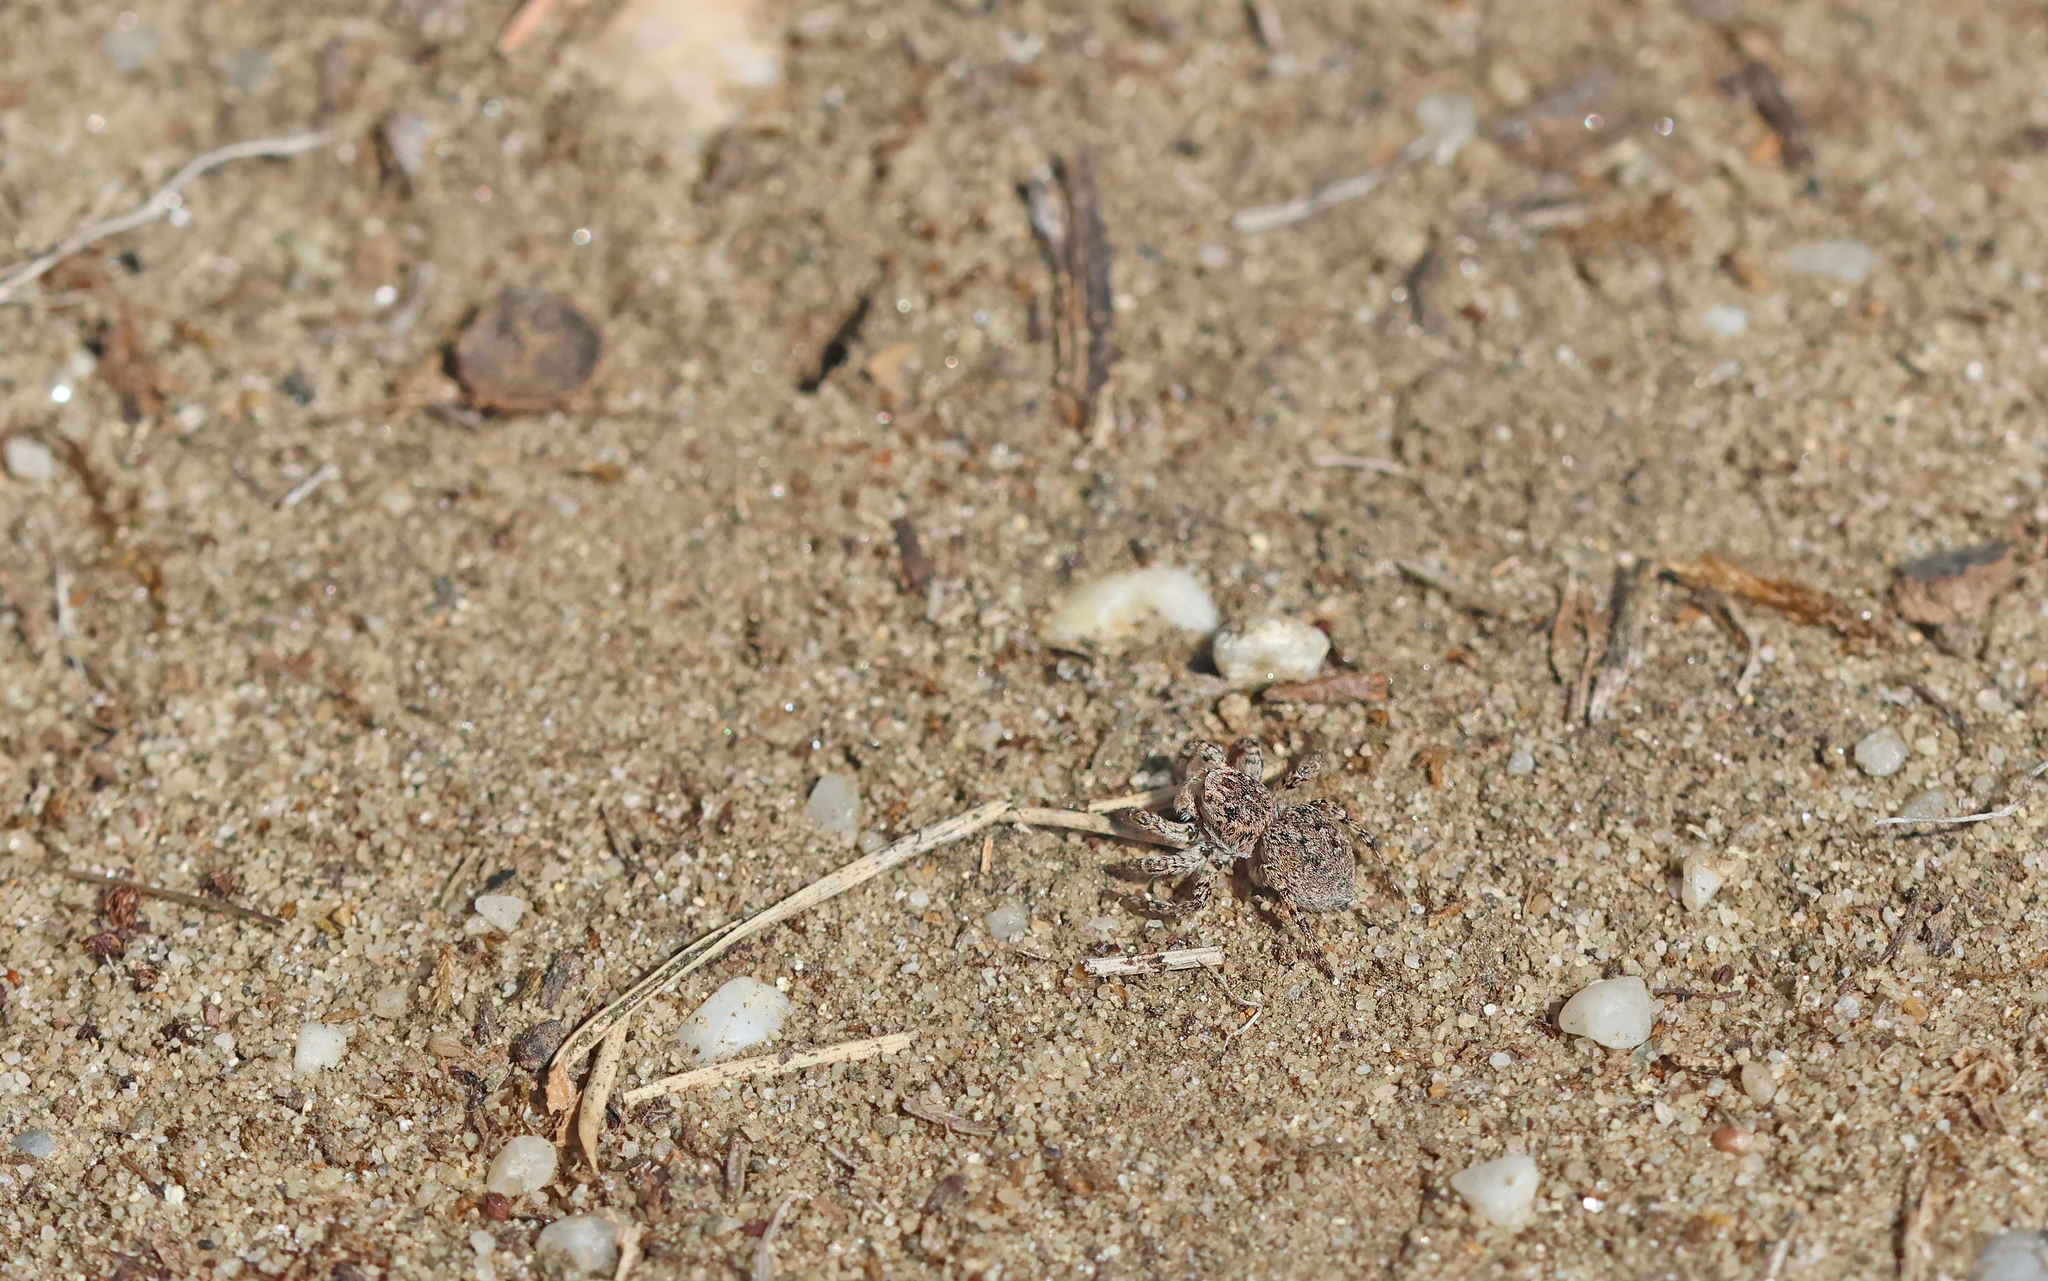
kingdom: Animalia
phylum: Arthropoda
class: Arachnida
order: Araneae
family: Salticidae
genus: Aelurillus
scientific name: Aelurillus v-insignitus
